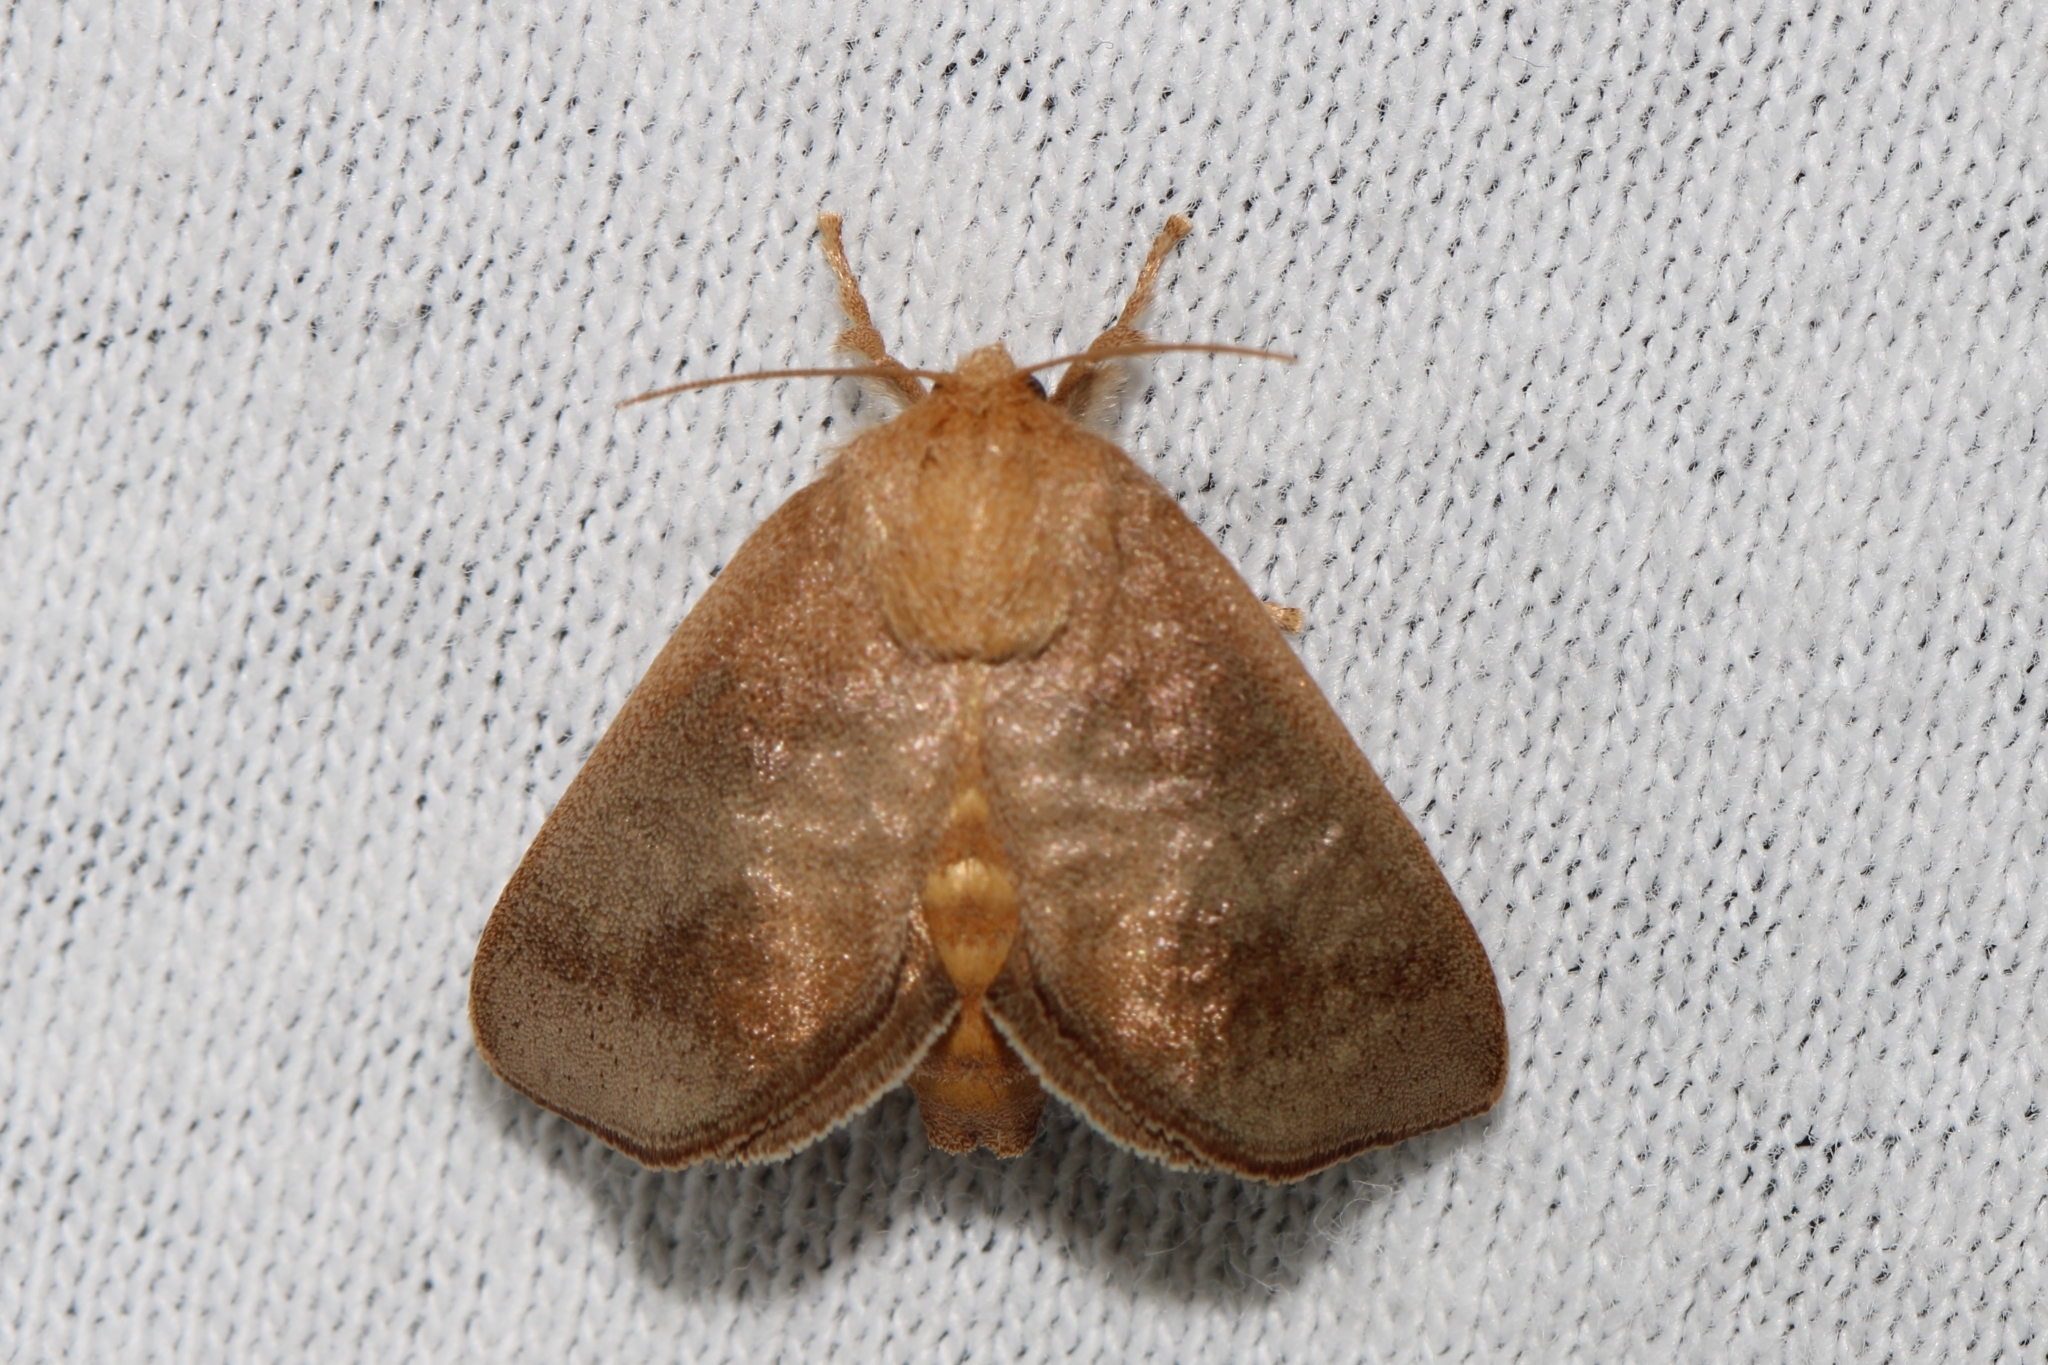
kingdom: Animalia
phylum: Arthropoda
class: Insecta
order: Lepidoptera
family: Limacodidae
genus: Isa
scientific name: Isa textula
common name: Crowned slug moth
